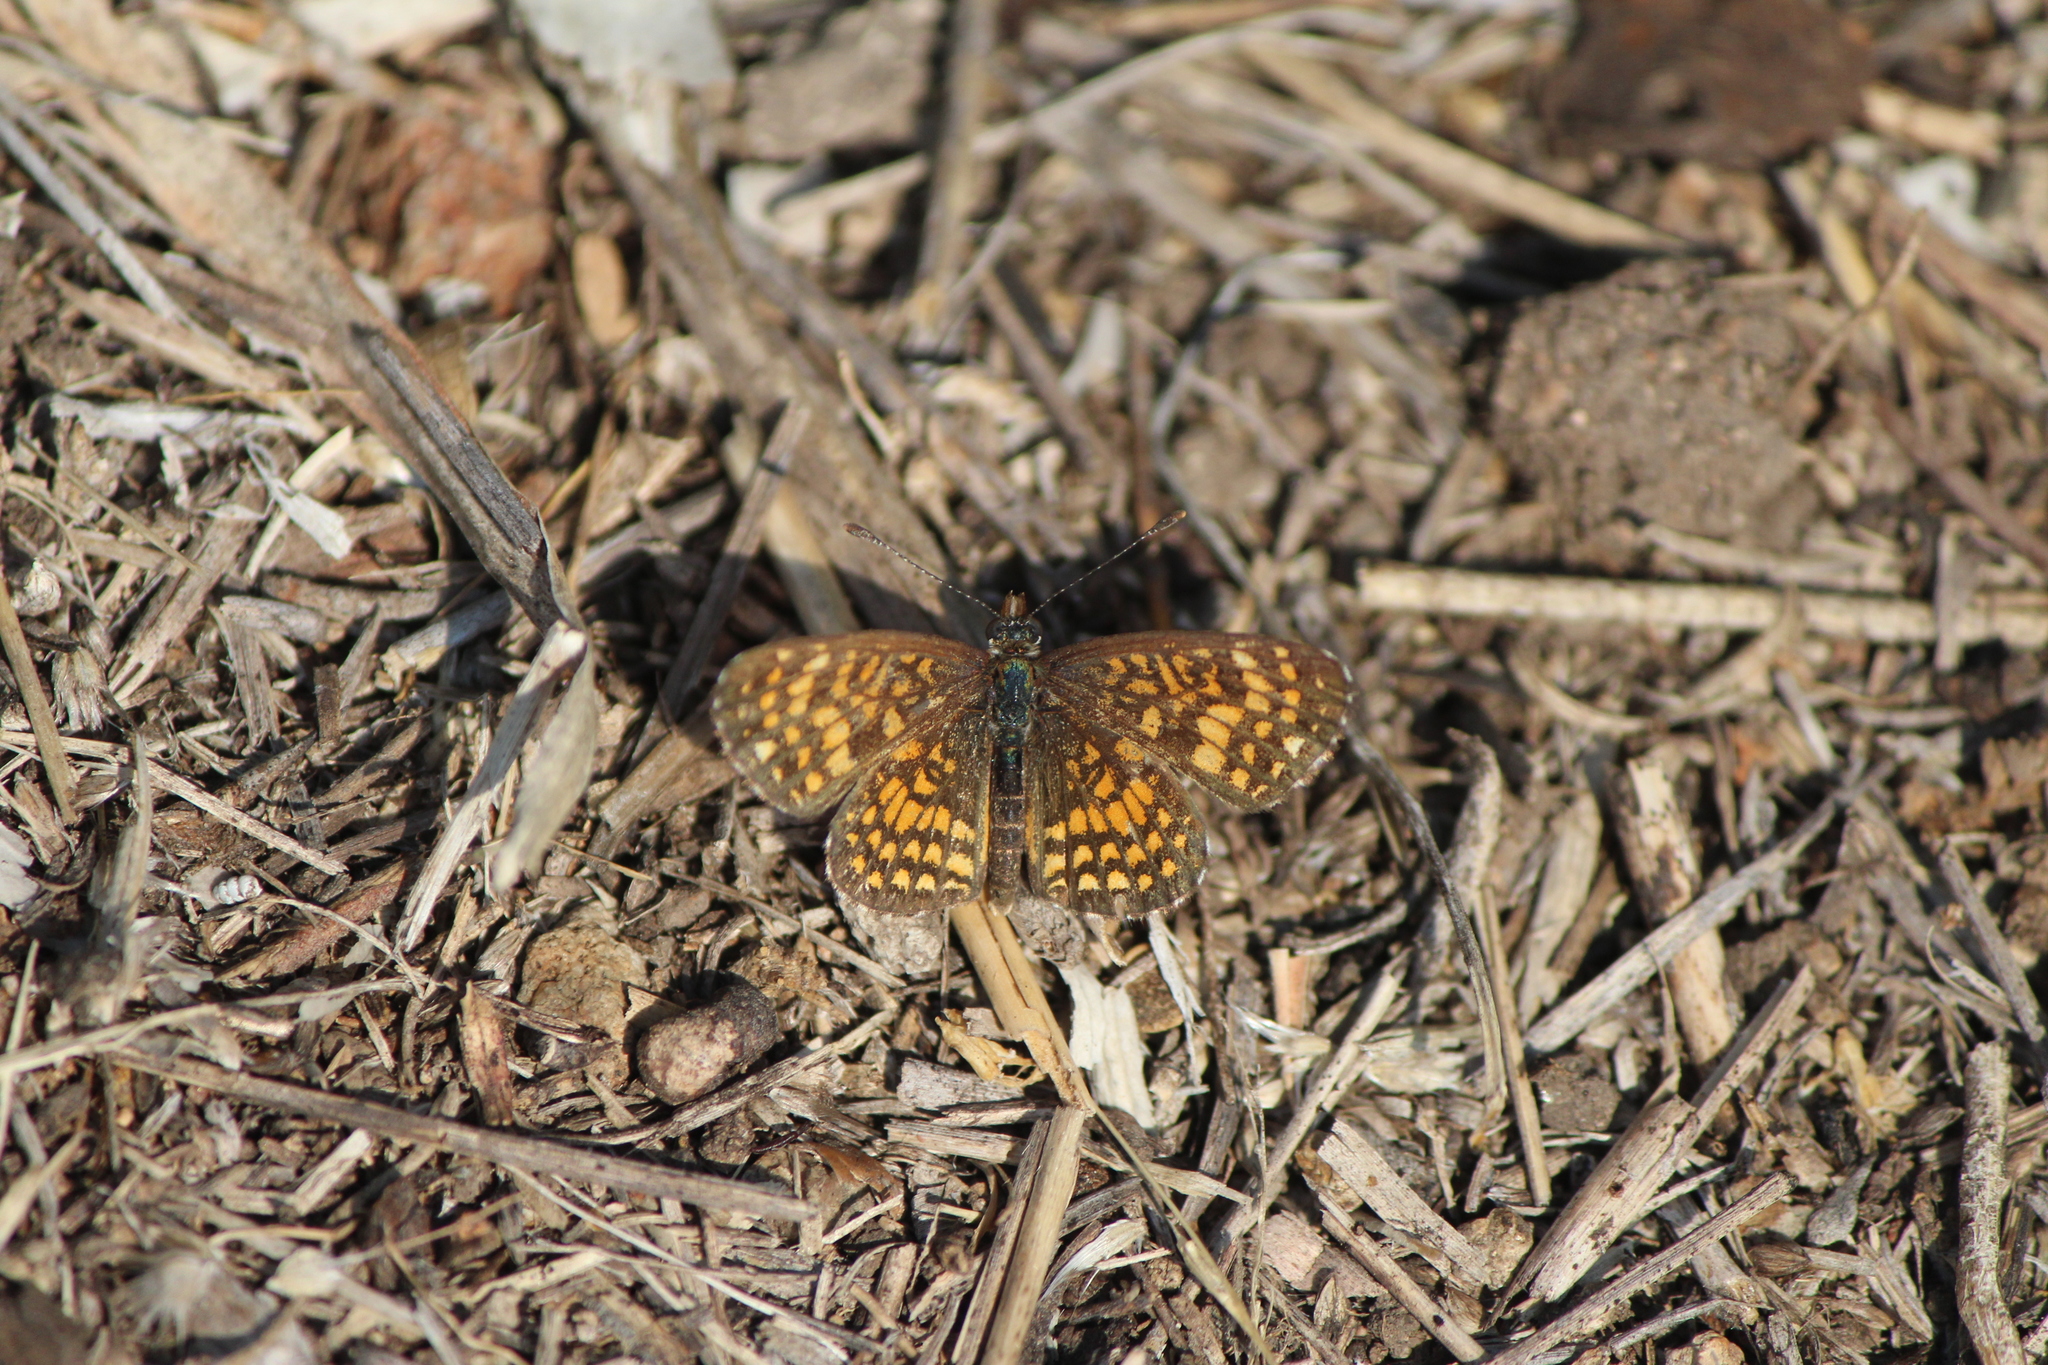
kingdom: Animalia
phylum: Arthropoda
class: Insecta
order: Lepidoptera
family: Nymphalidae
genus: Texola
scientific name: Texola elada
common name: Elada checkerspot
